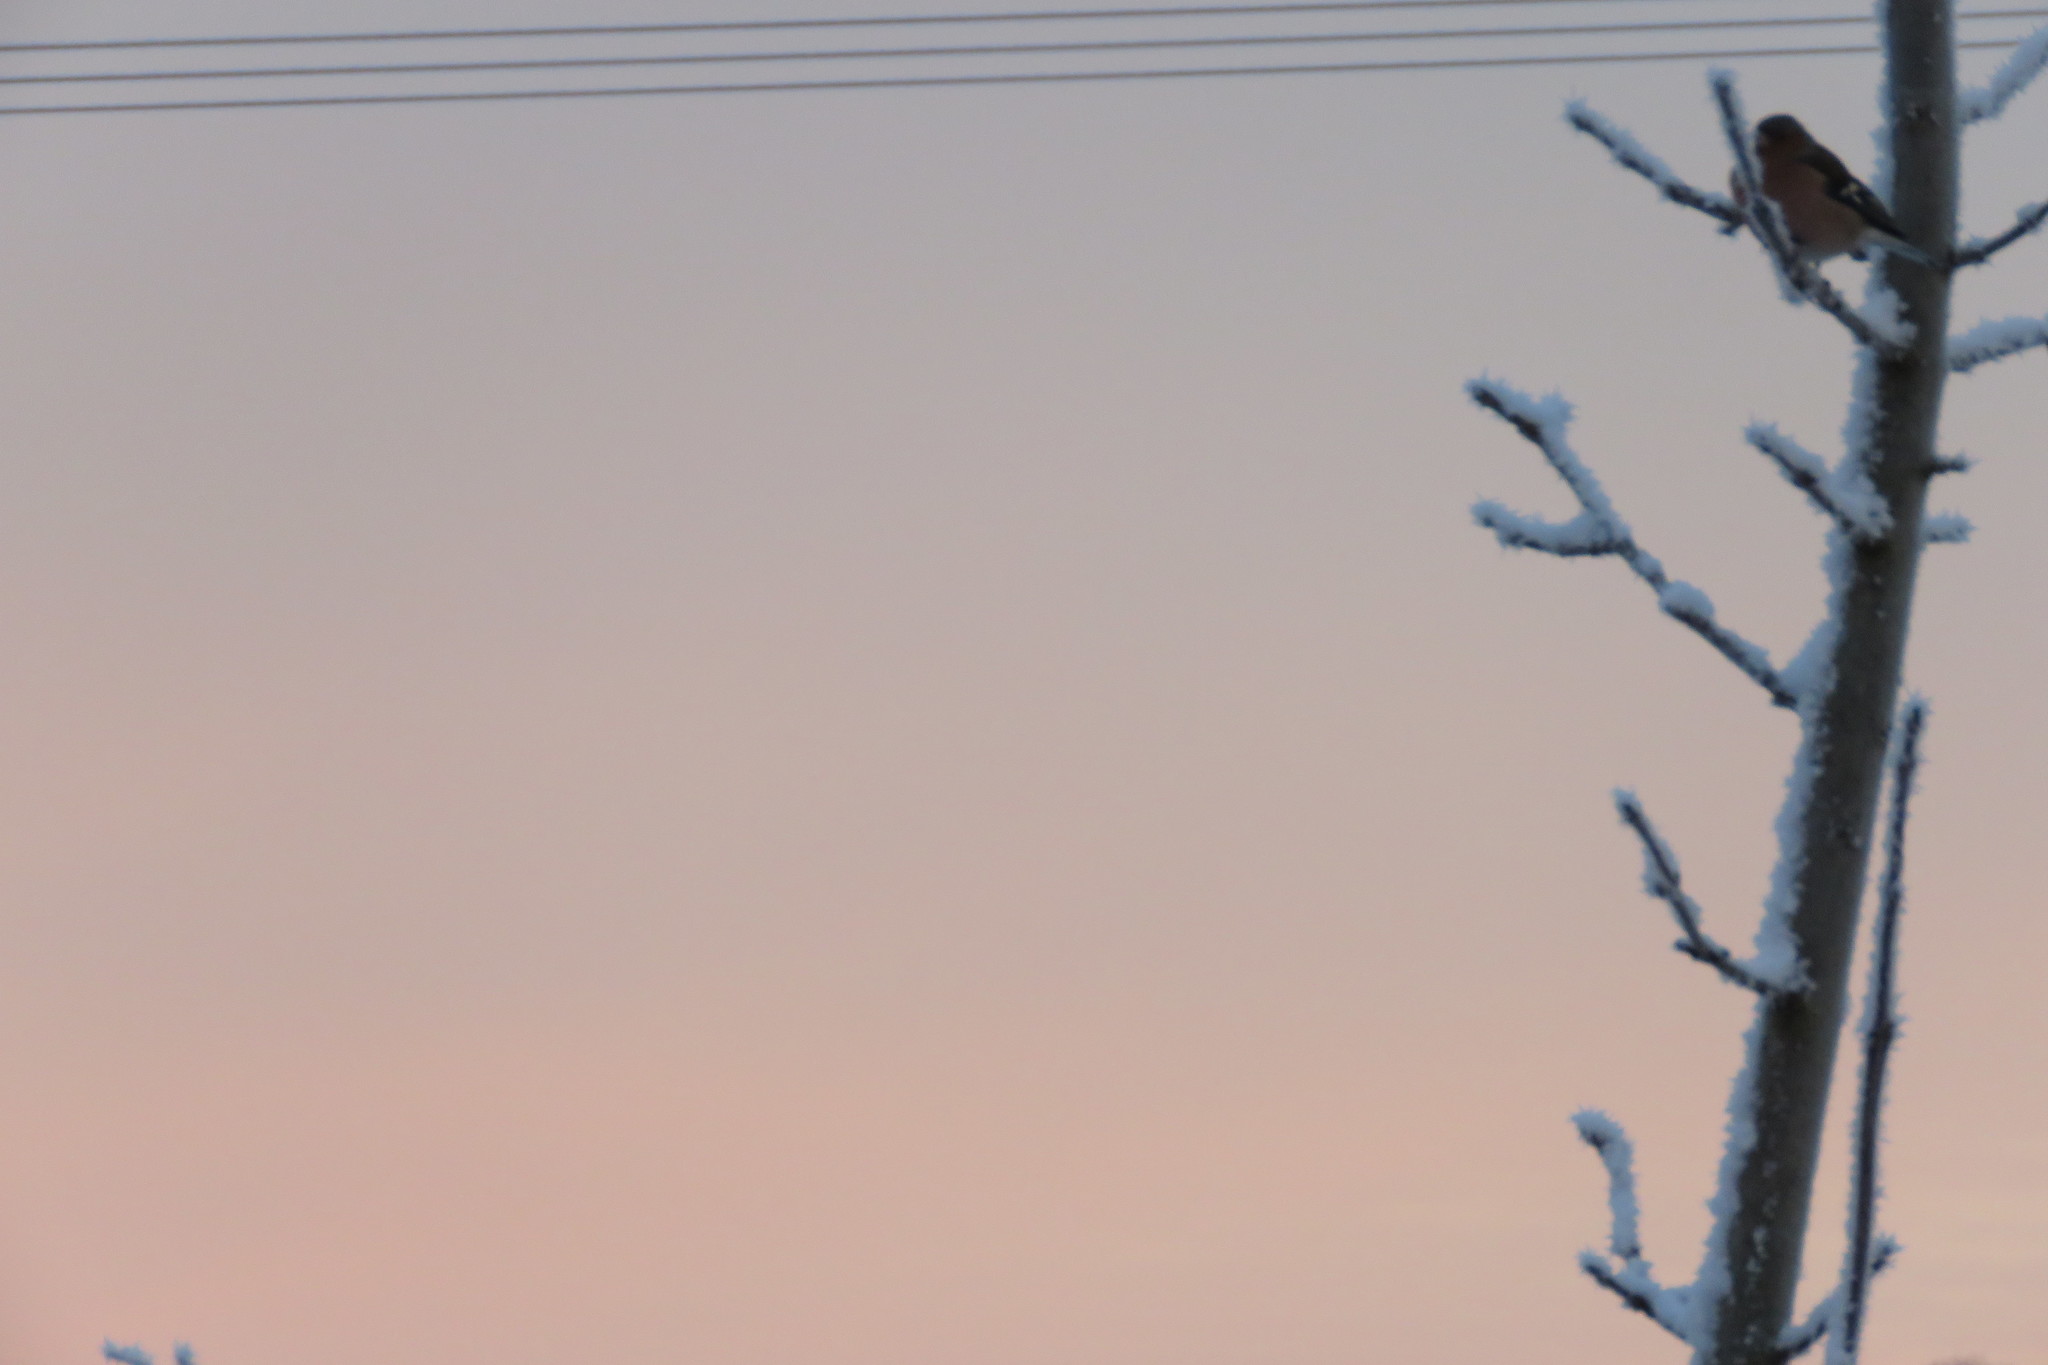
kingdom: Animalia
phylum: Chordata
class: Aves
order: Passeriformes
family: Fringillidae
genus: Fringilla
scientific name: Fringilla coelebs
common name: Common chaffinch
